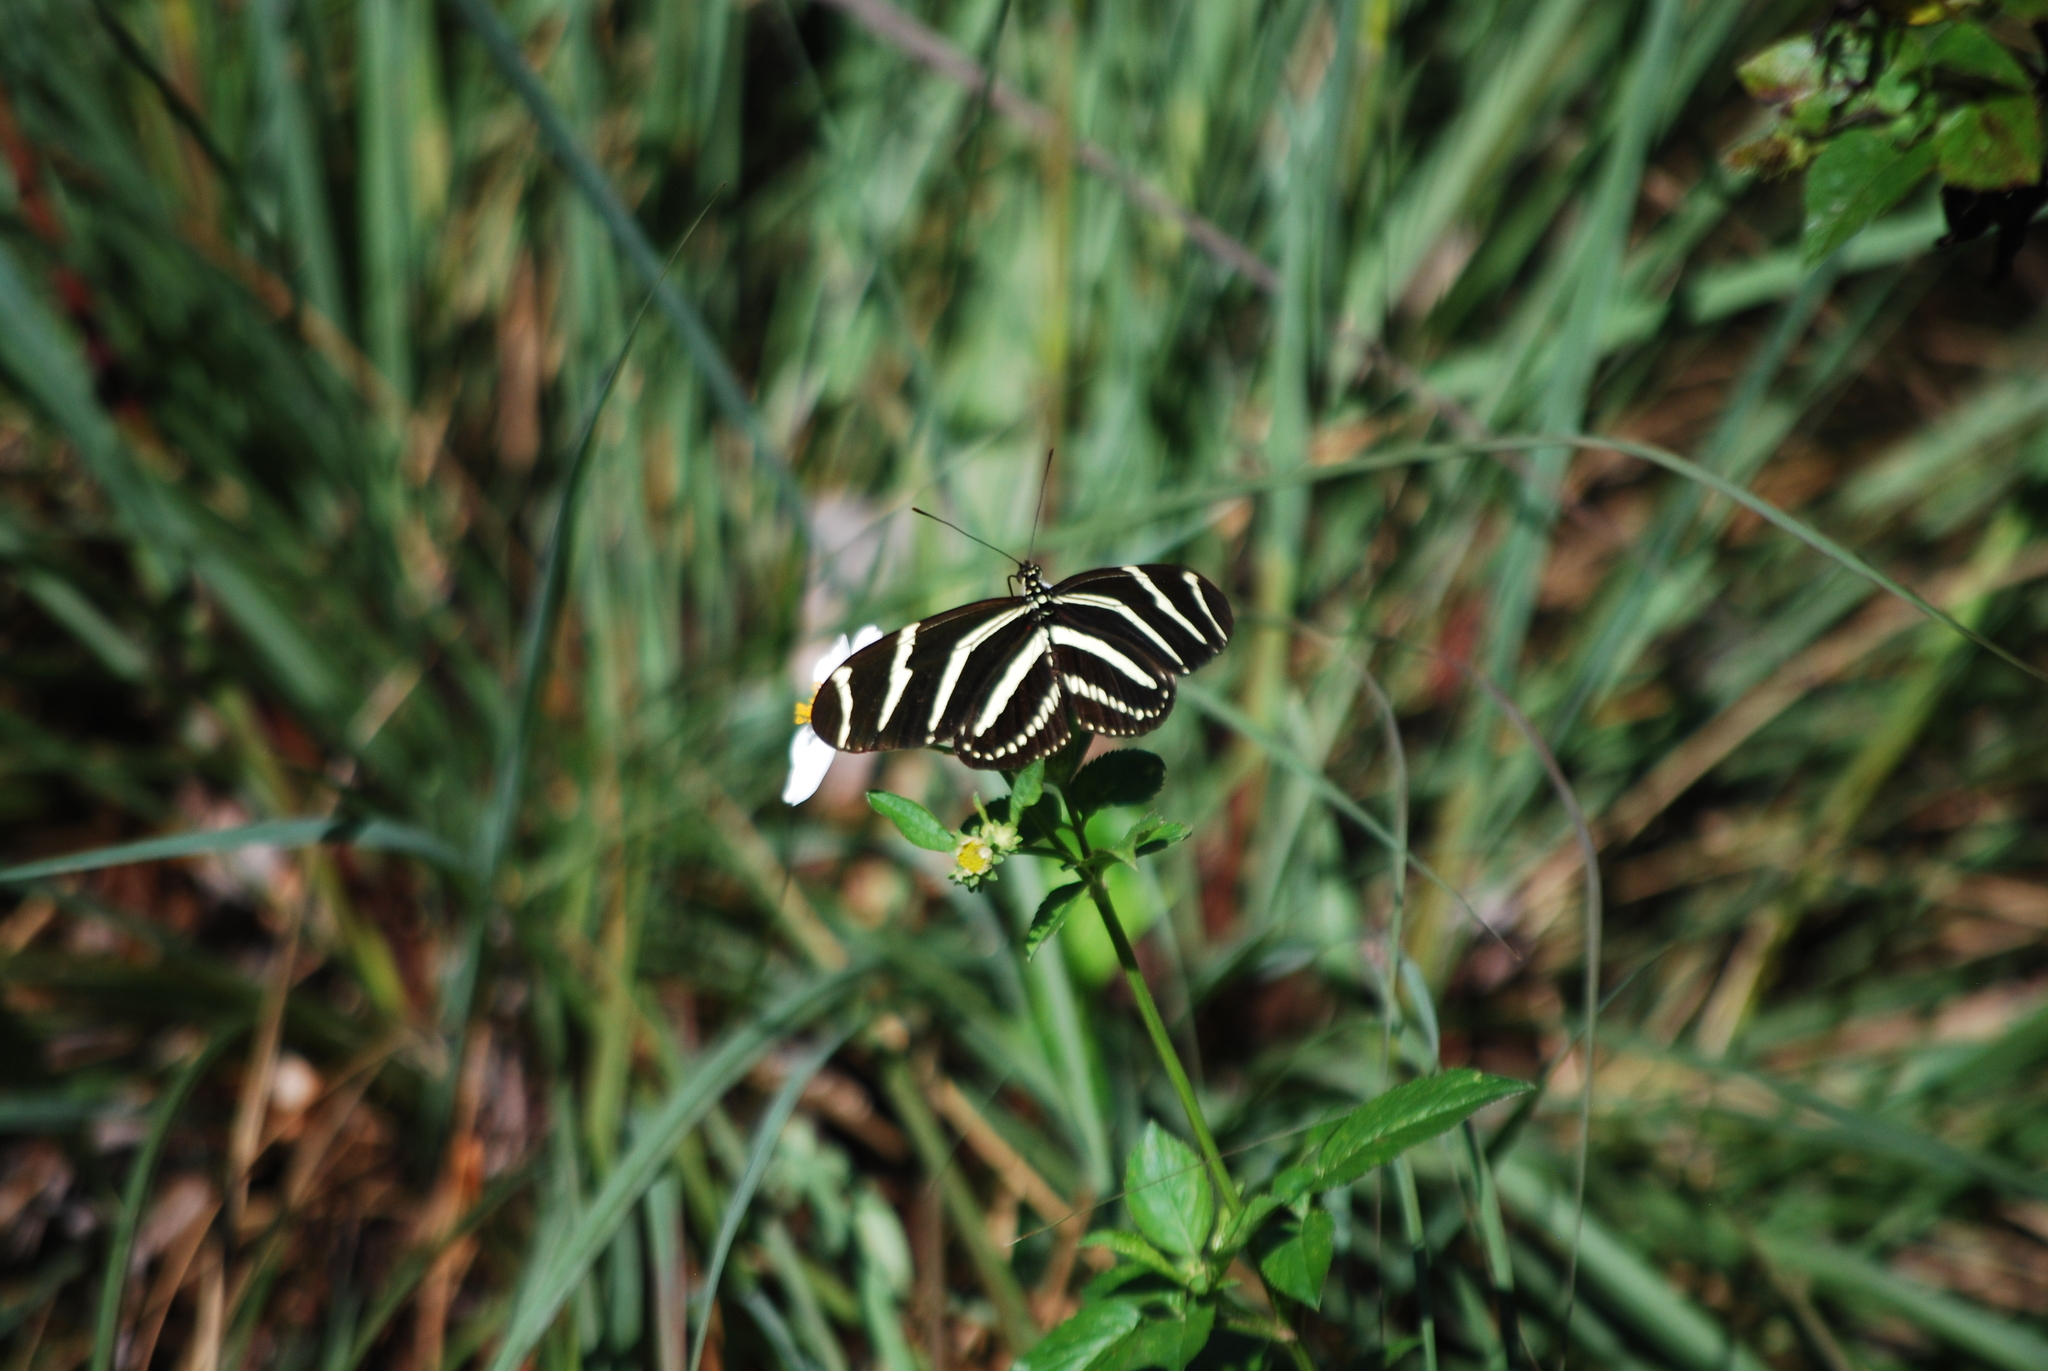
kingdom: Animalia
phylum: Arthropoda
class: Insecta
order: Lepidoptera
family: Nymphalidae
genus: Heliconius
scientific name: Heliconius charithonia
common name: Zebra long wing
